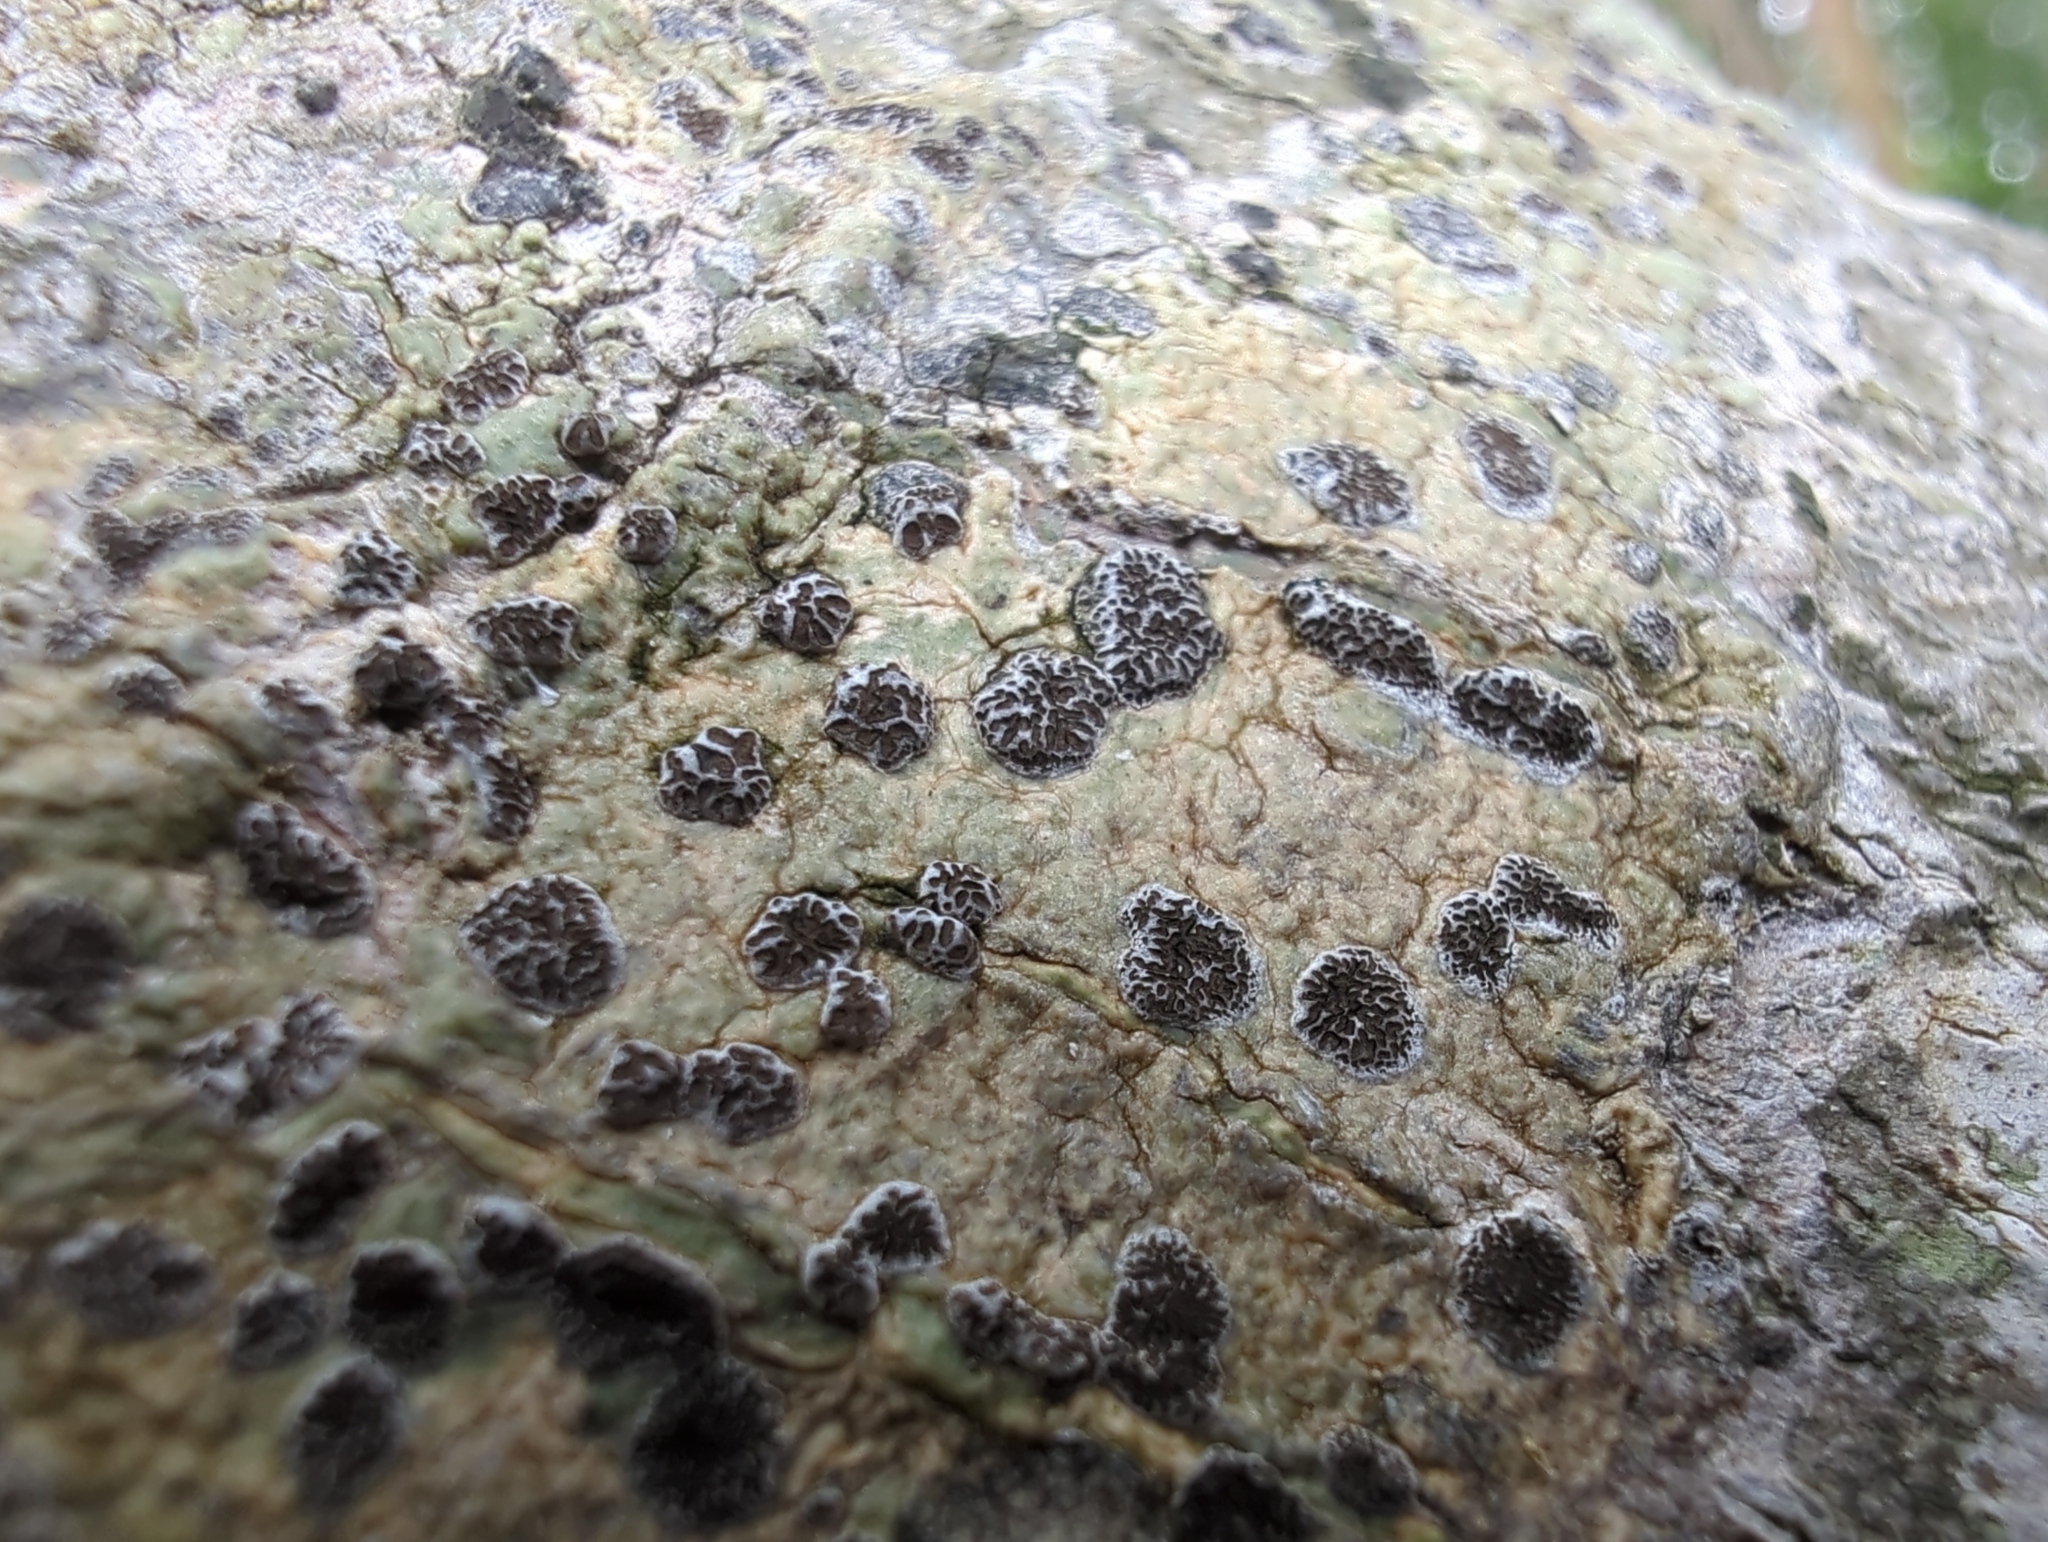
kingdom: Fungi
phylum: Ascomycota
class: Lecanoromycetes
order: Ostropales
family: Graphidaceae
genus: Glyphis
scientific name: Glyphis cicatricosa
